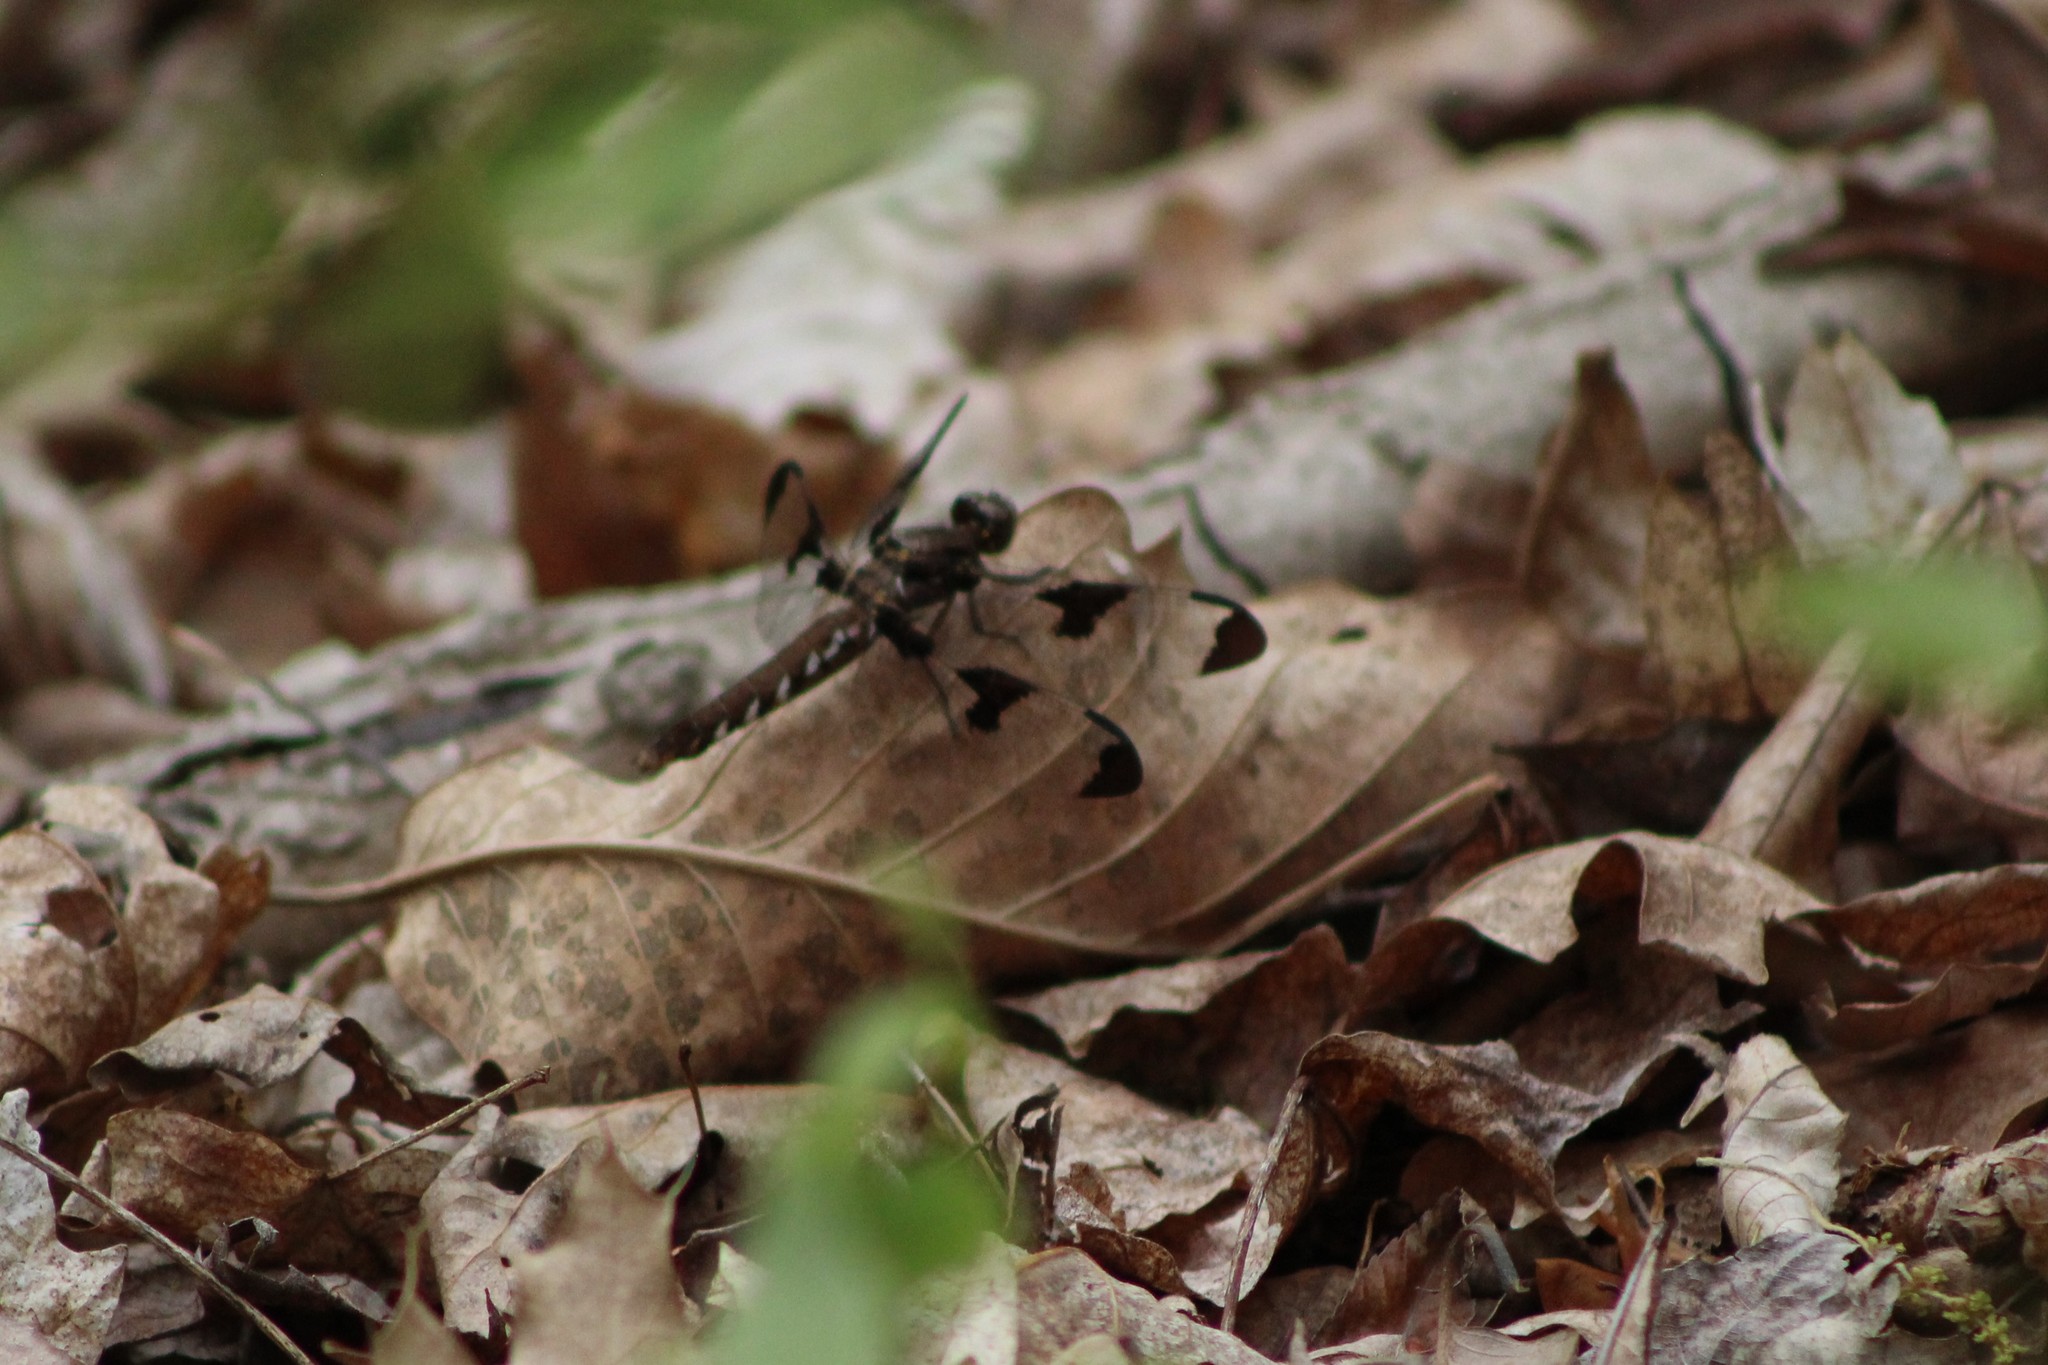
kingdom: Animalia
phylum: Arthropoda
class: Insecta
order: Odonata
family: Libellulidae
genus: Plathemis
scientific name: Plathemis lydia
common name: Common whitetail
